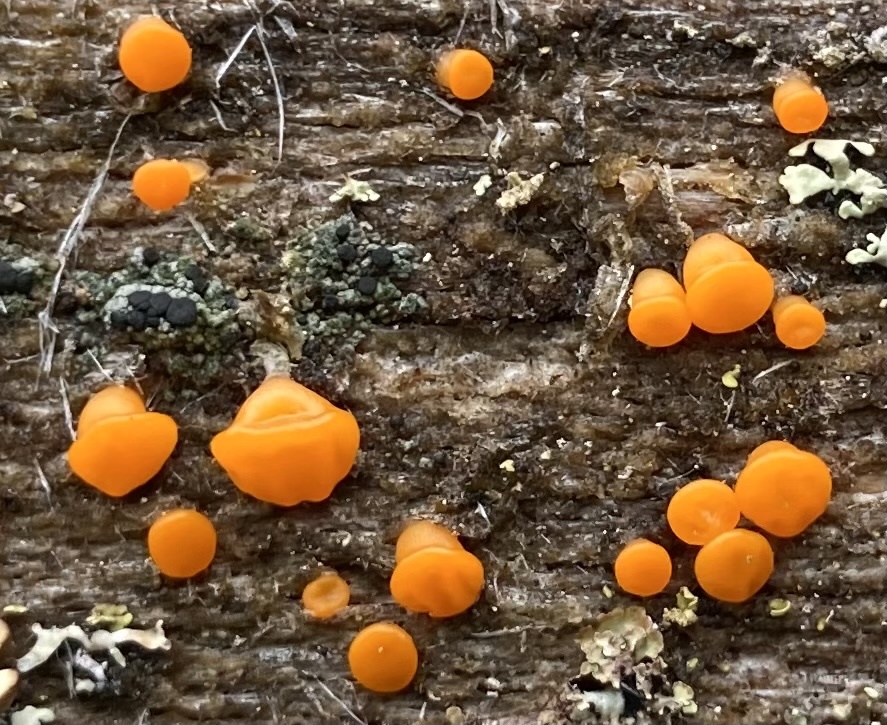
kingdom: Fungi
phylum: Basidiomycota
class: Dacrymycetes
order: Dacrymycetales
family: Dacrymycetaceae
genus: Dacrymyces
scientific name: Dacrymyces stillatus
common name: Common jelly spot
